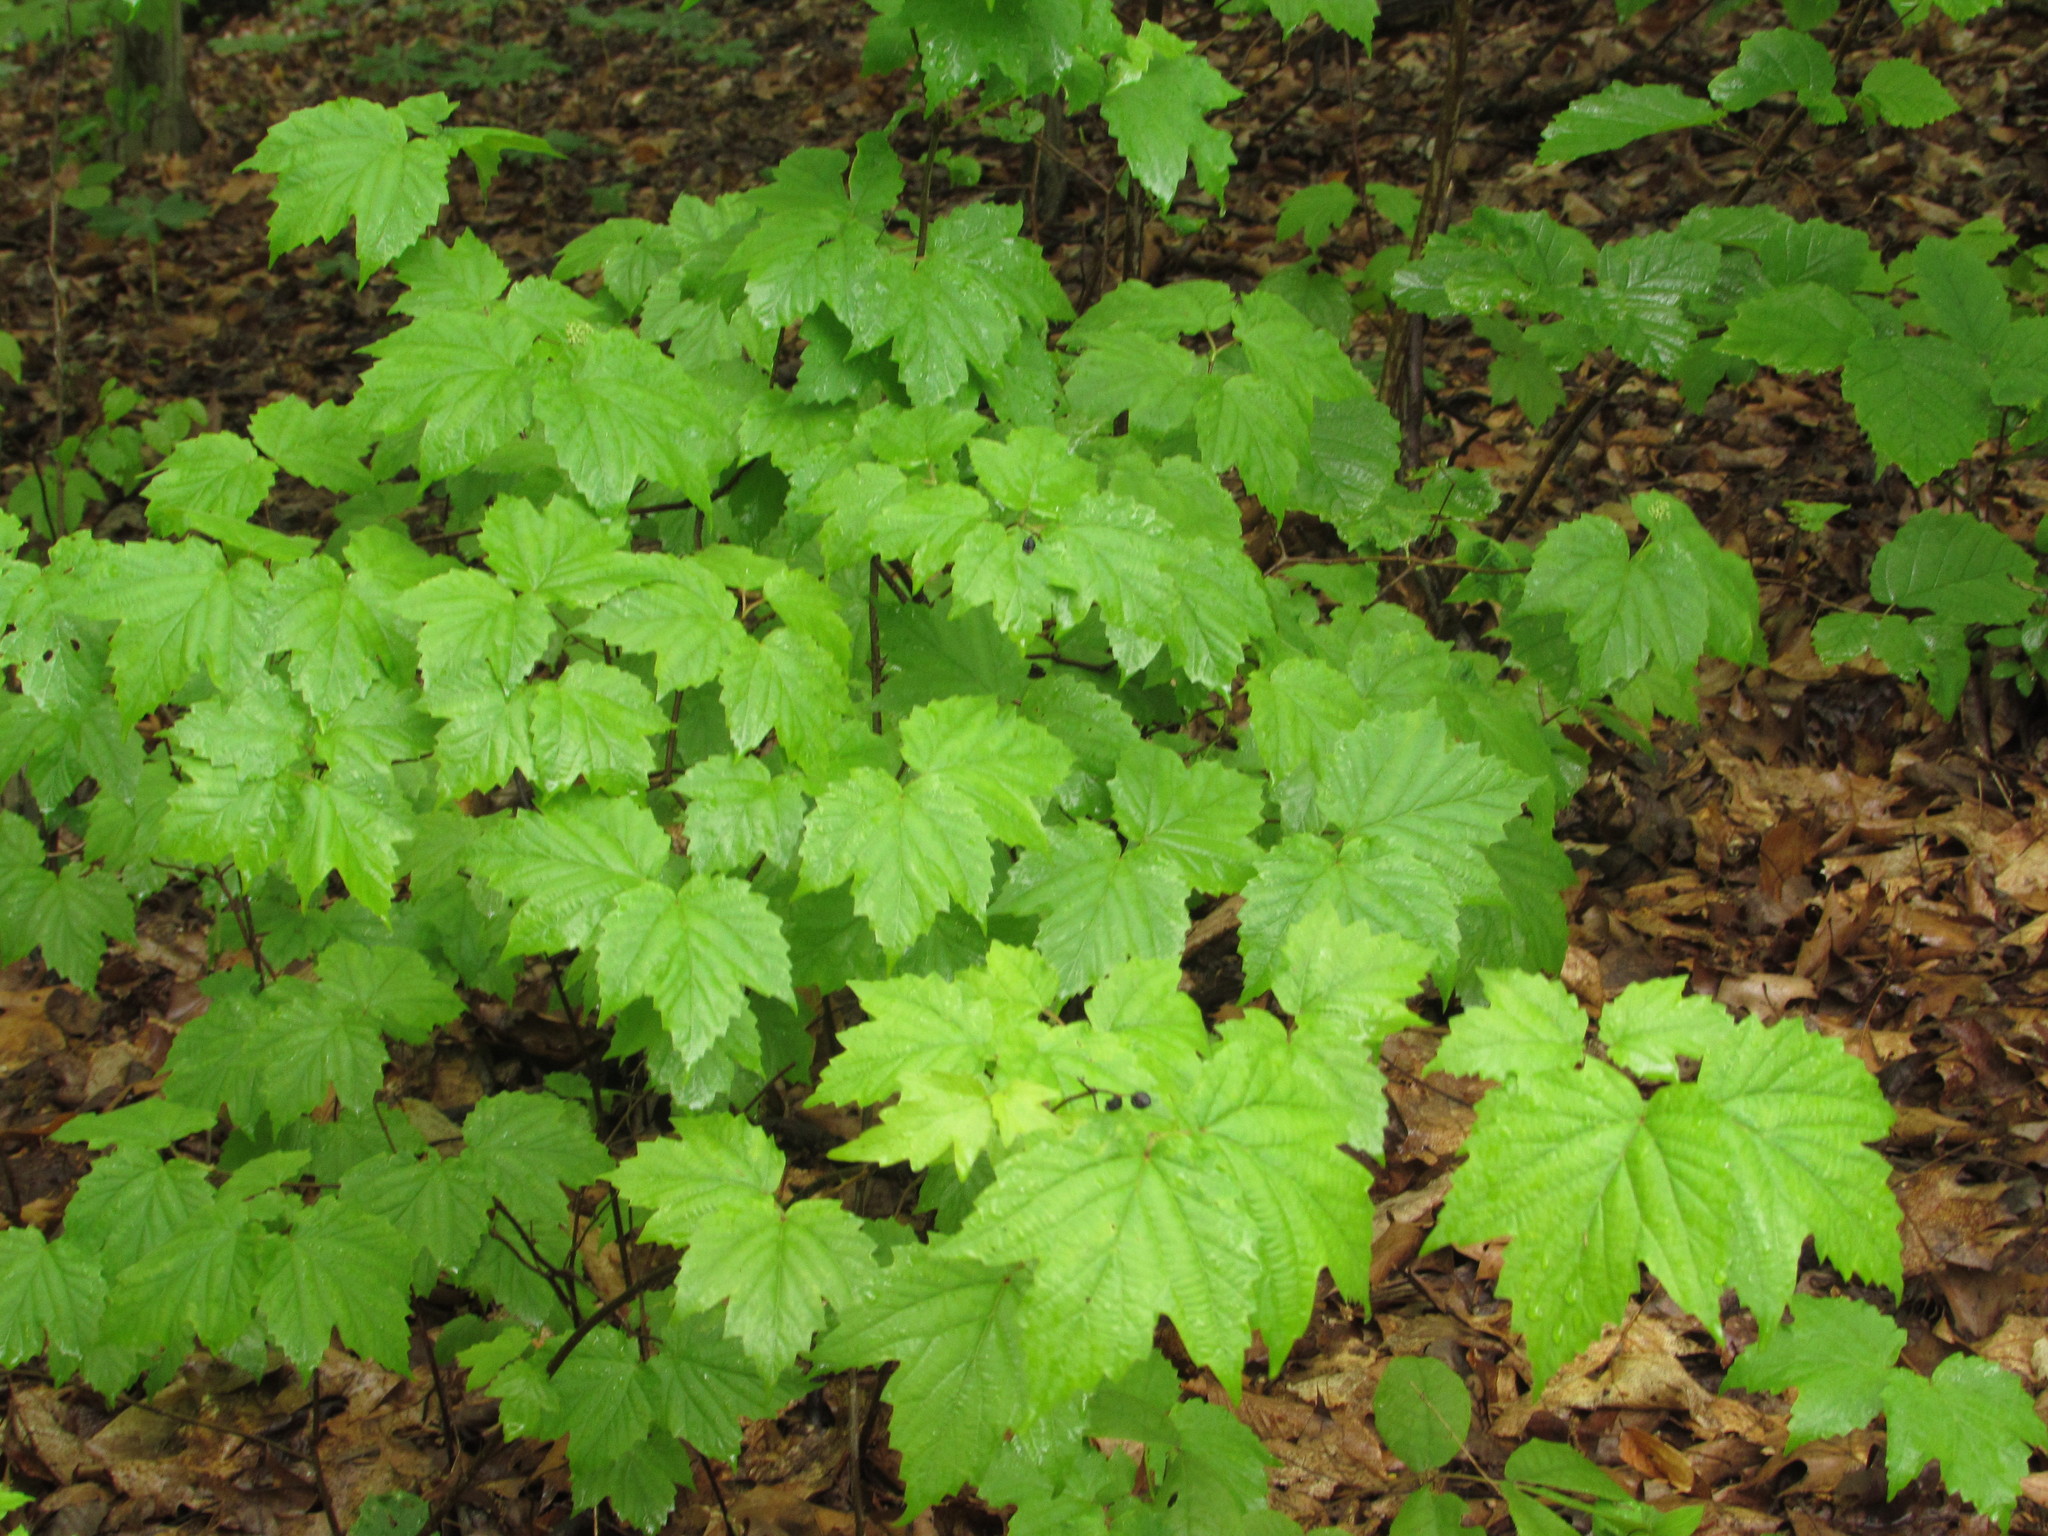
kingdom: Plantae
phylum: Tracheophyta
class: Magnoliopsida
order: Dipsacales
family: Viburnaceae
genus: Viburnum
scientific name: Viburnum acerifolium
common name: Dockmackie
